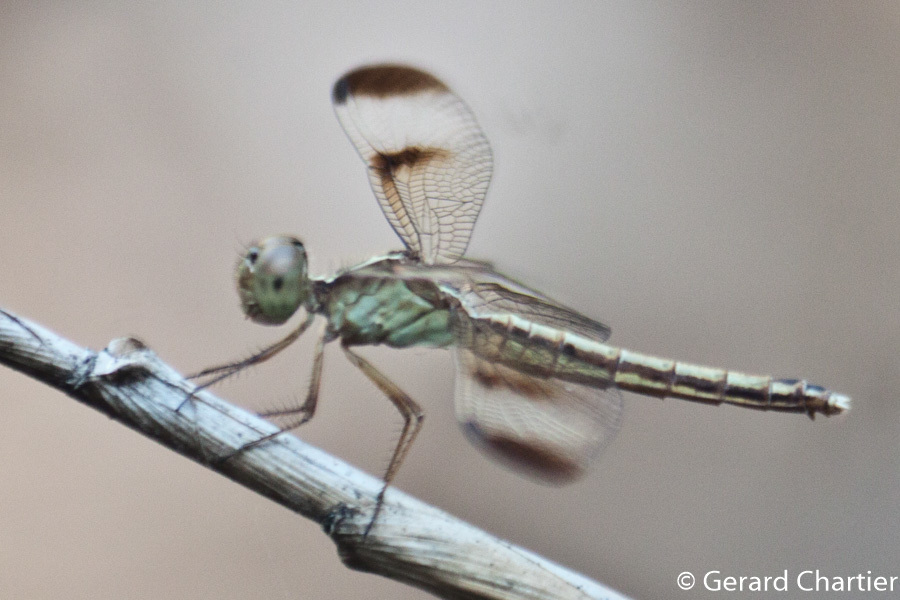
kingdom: Animalia
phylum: Arthropoda
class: Insecta
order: Odonata
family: Libellulidae
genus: Neurothemis
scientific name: Neurothemis tullia
